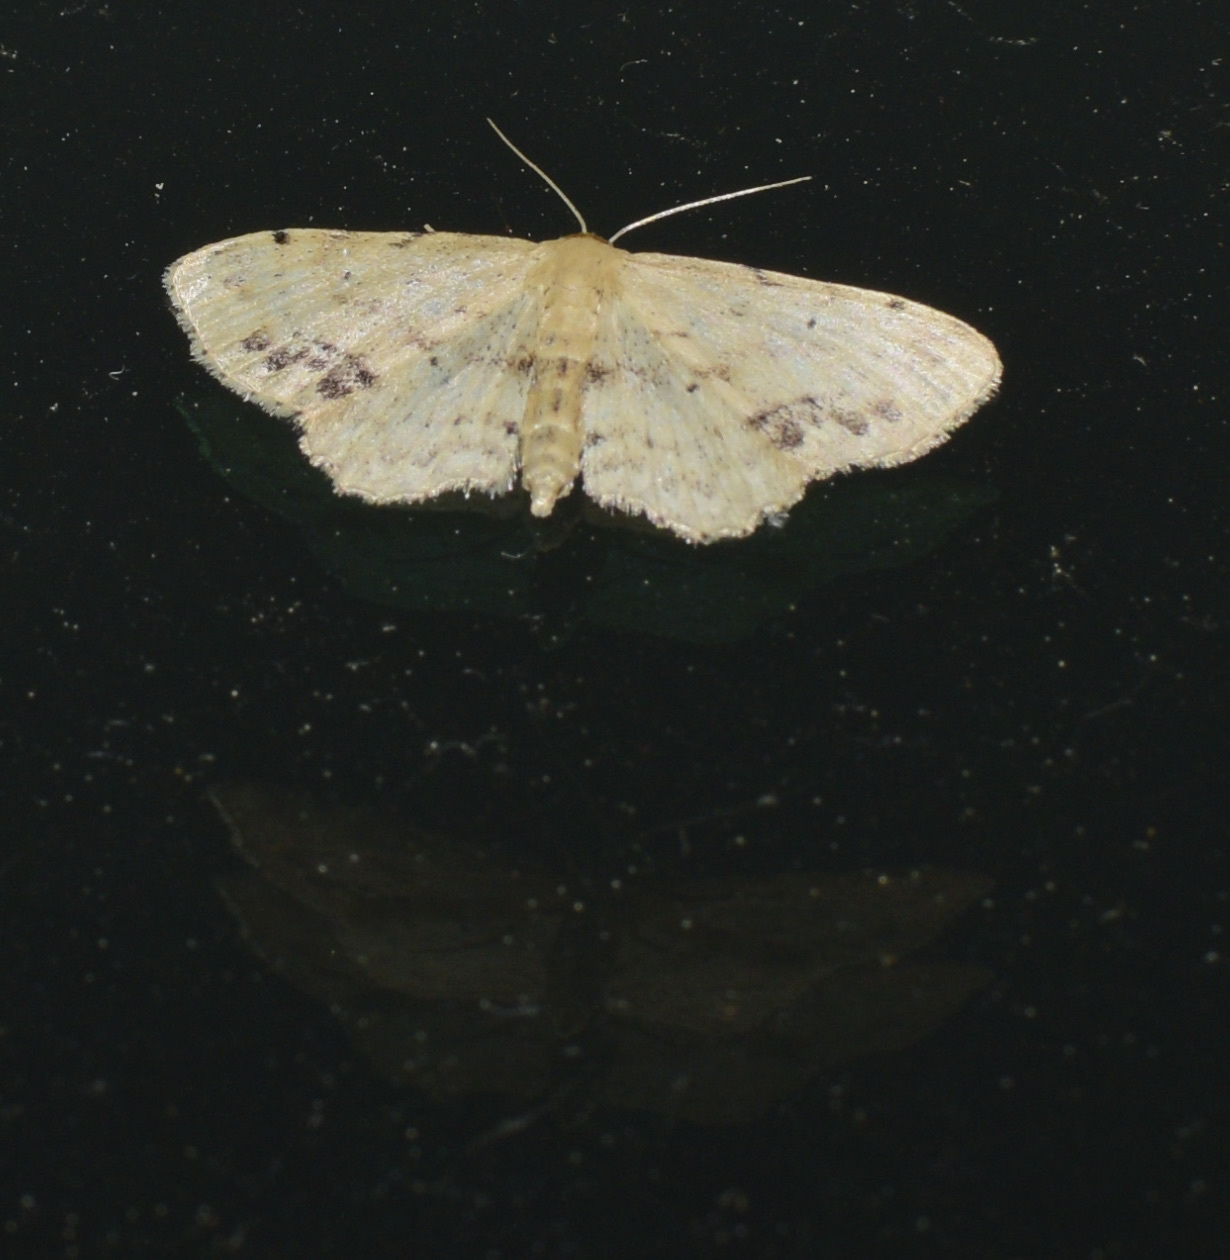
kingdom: Animalia
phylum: Arthropoda
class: Insecta
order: Lepidoptera
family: Geometridae
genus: Idaea
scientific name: Idaea dimidiata
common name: Single-dotted wave
